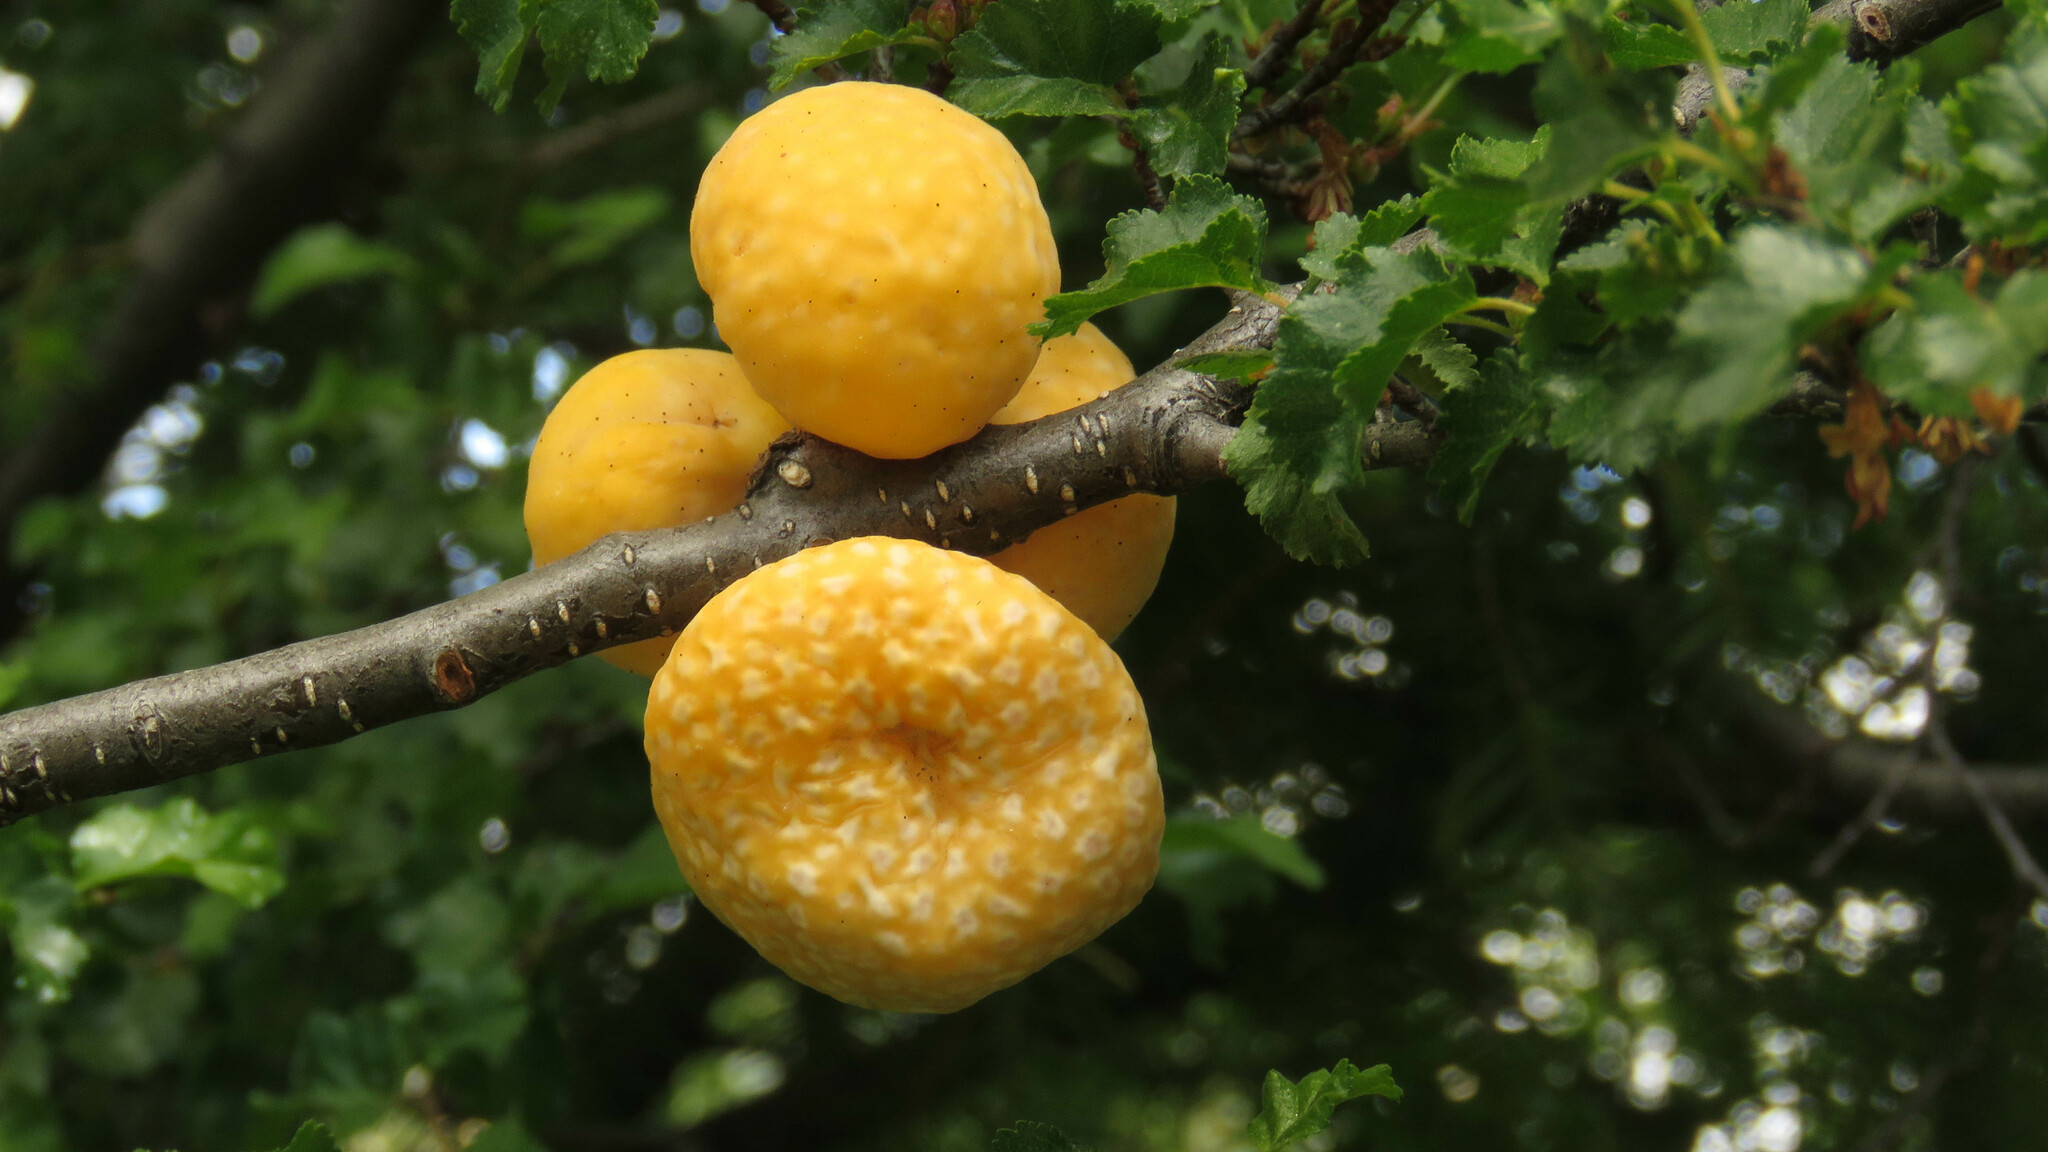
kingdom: Fungi
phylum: Ascomycota
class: Leotiomycetes
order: Cyttariales
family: Cyttariaceae
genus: Cyttaria
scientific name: Cyttaria hariotii
